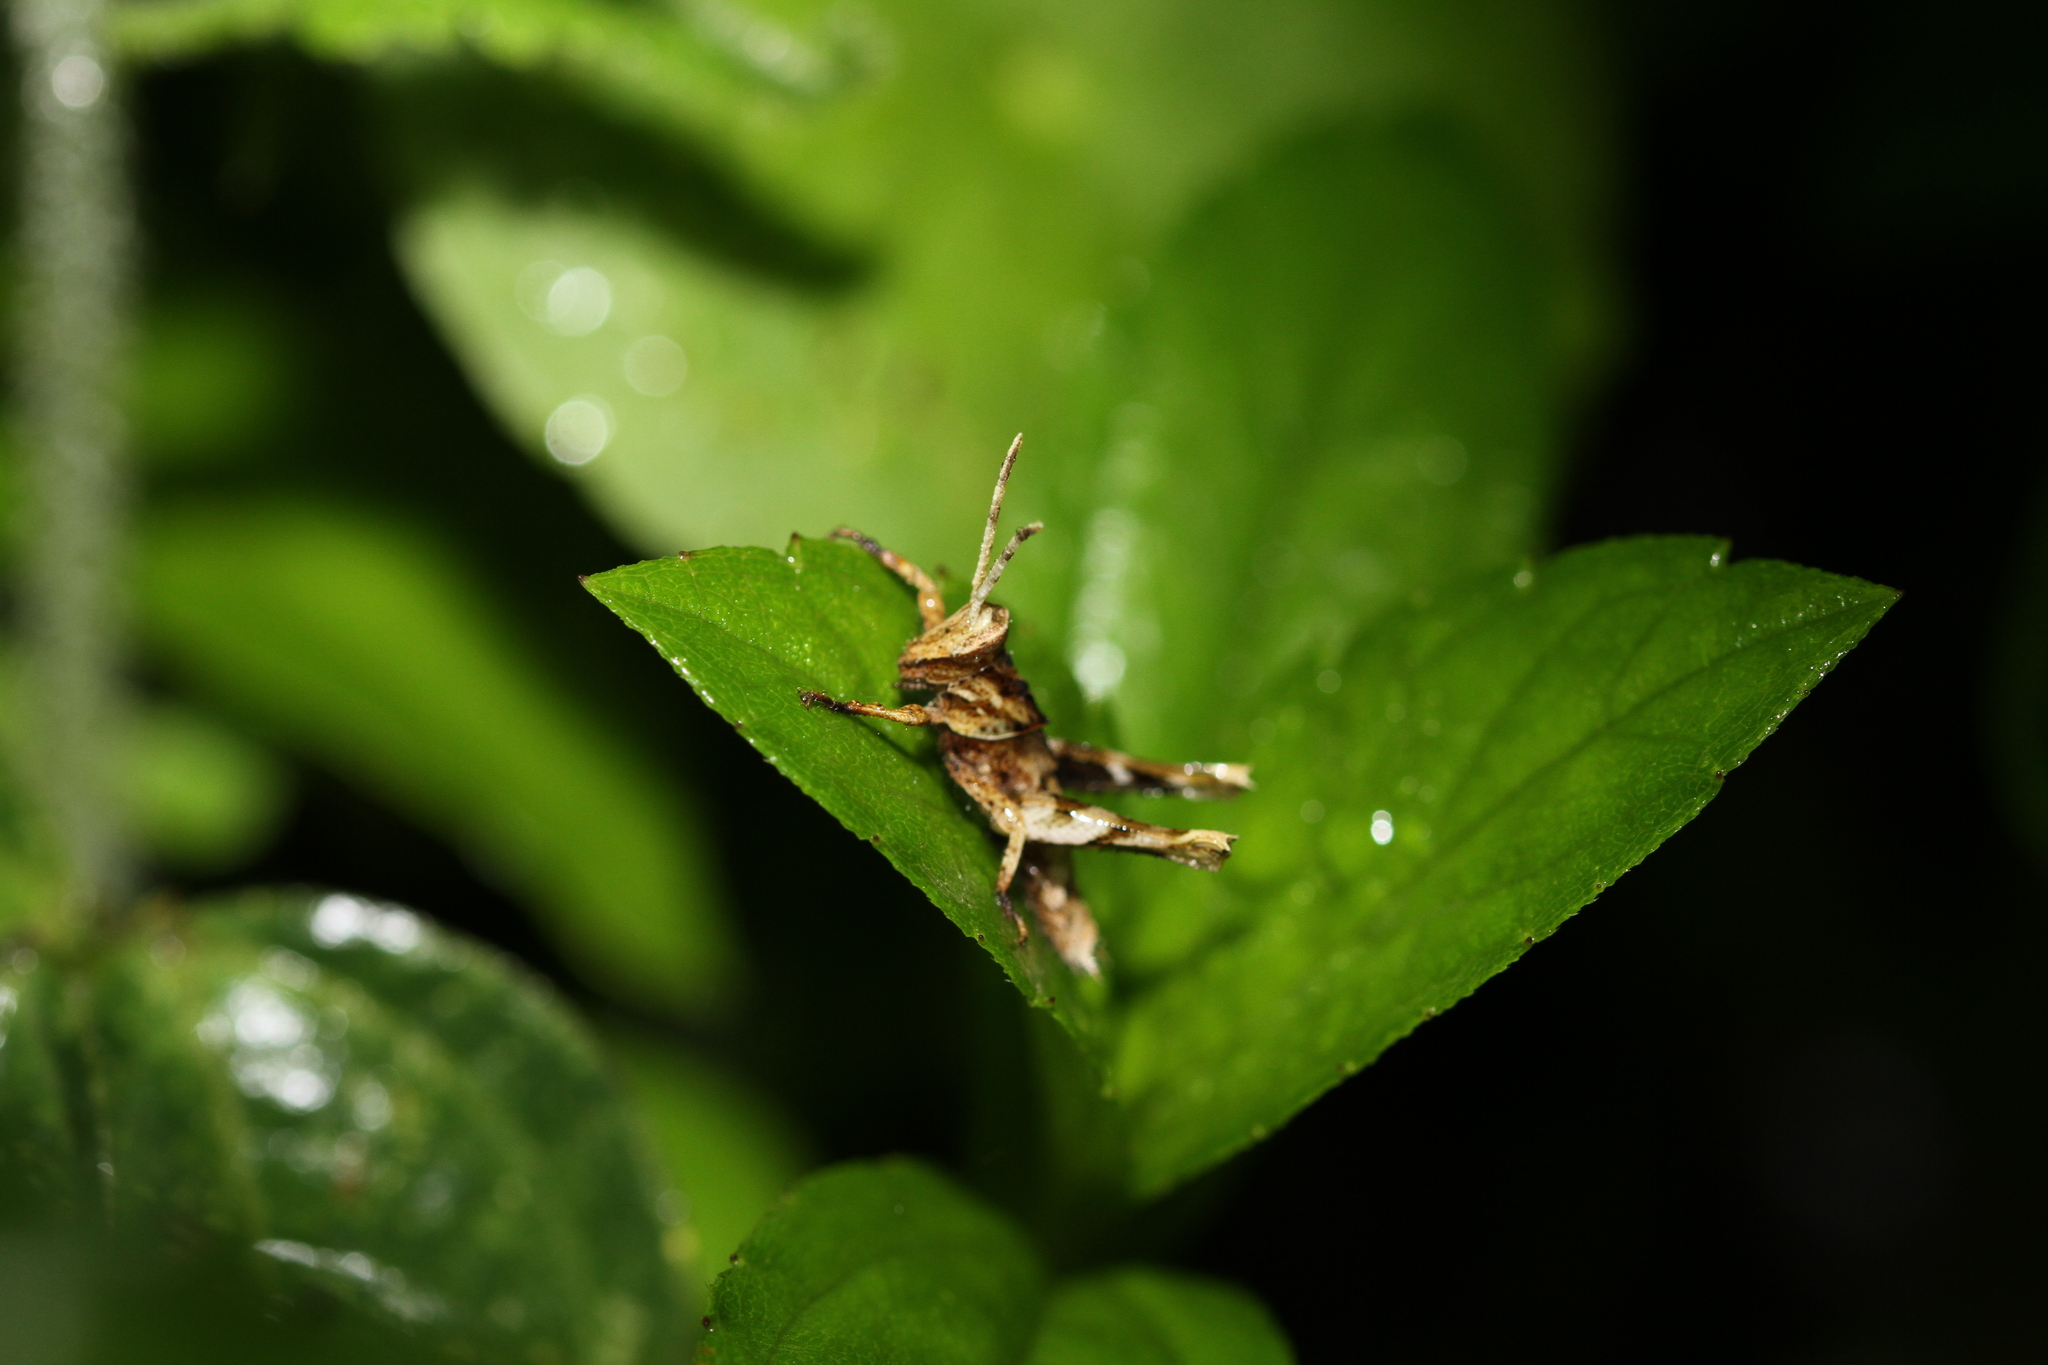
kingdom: Animalia
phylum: Arthropoda
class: Insecta
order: Orthoptera
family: Acrididae
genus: Coptacra
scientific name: Coptacra foedata
